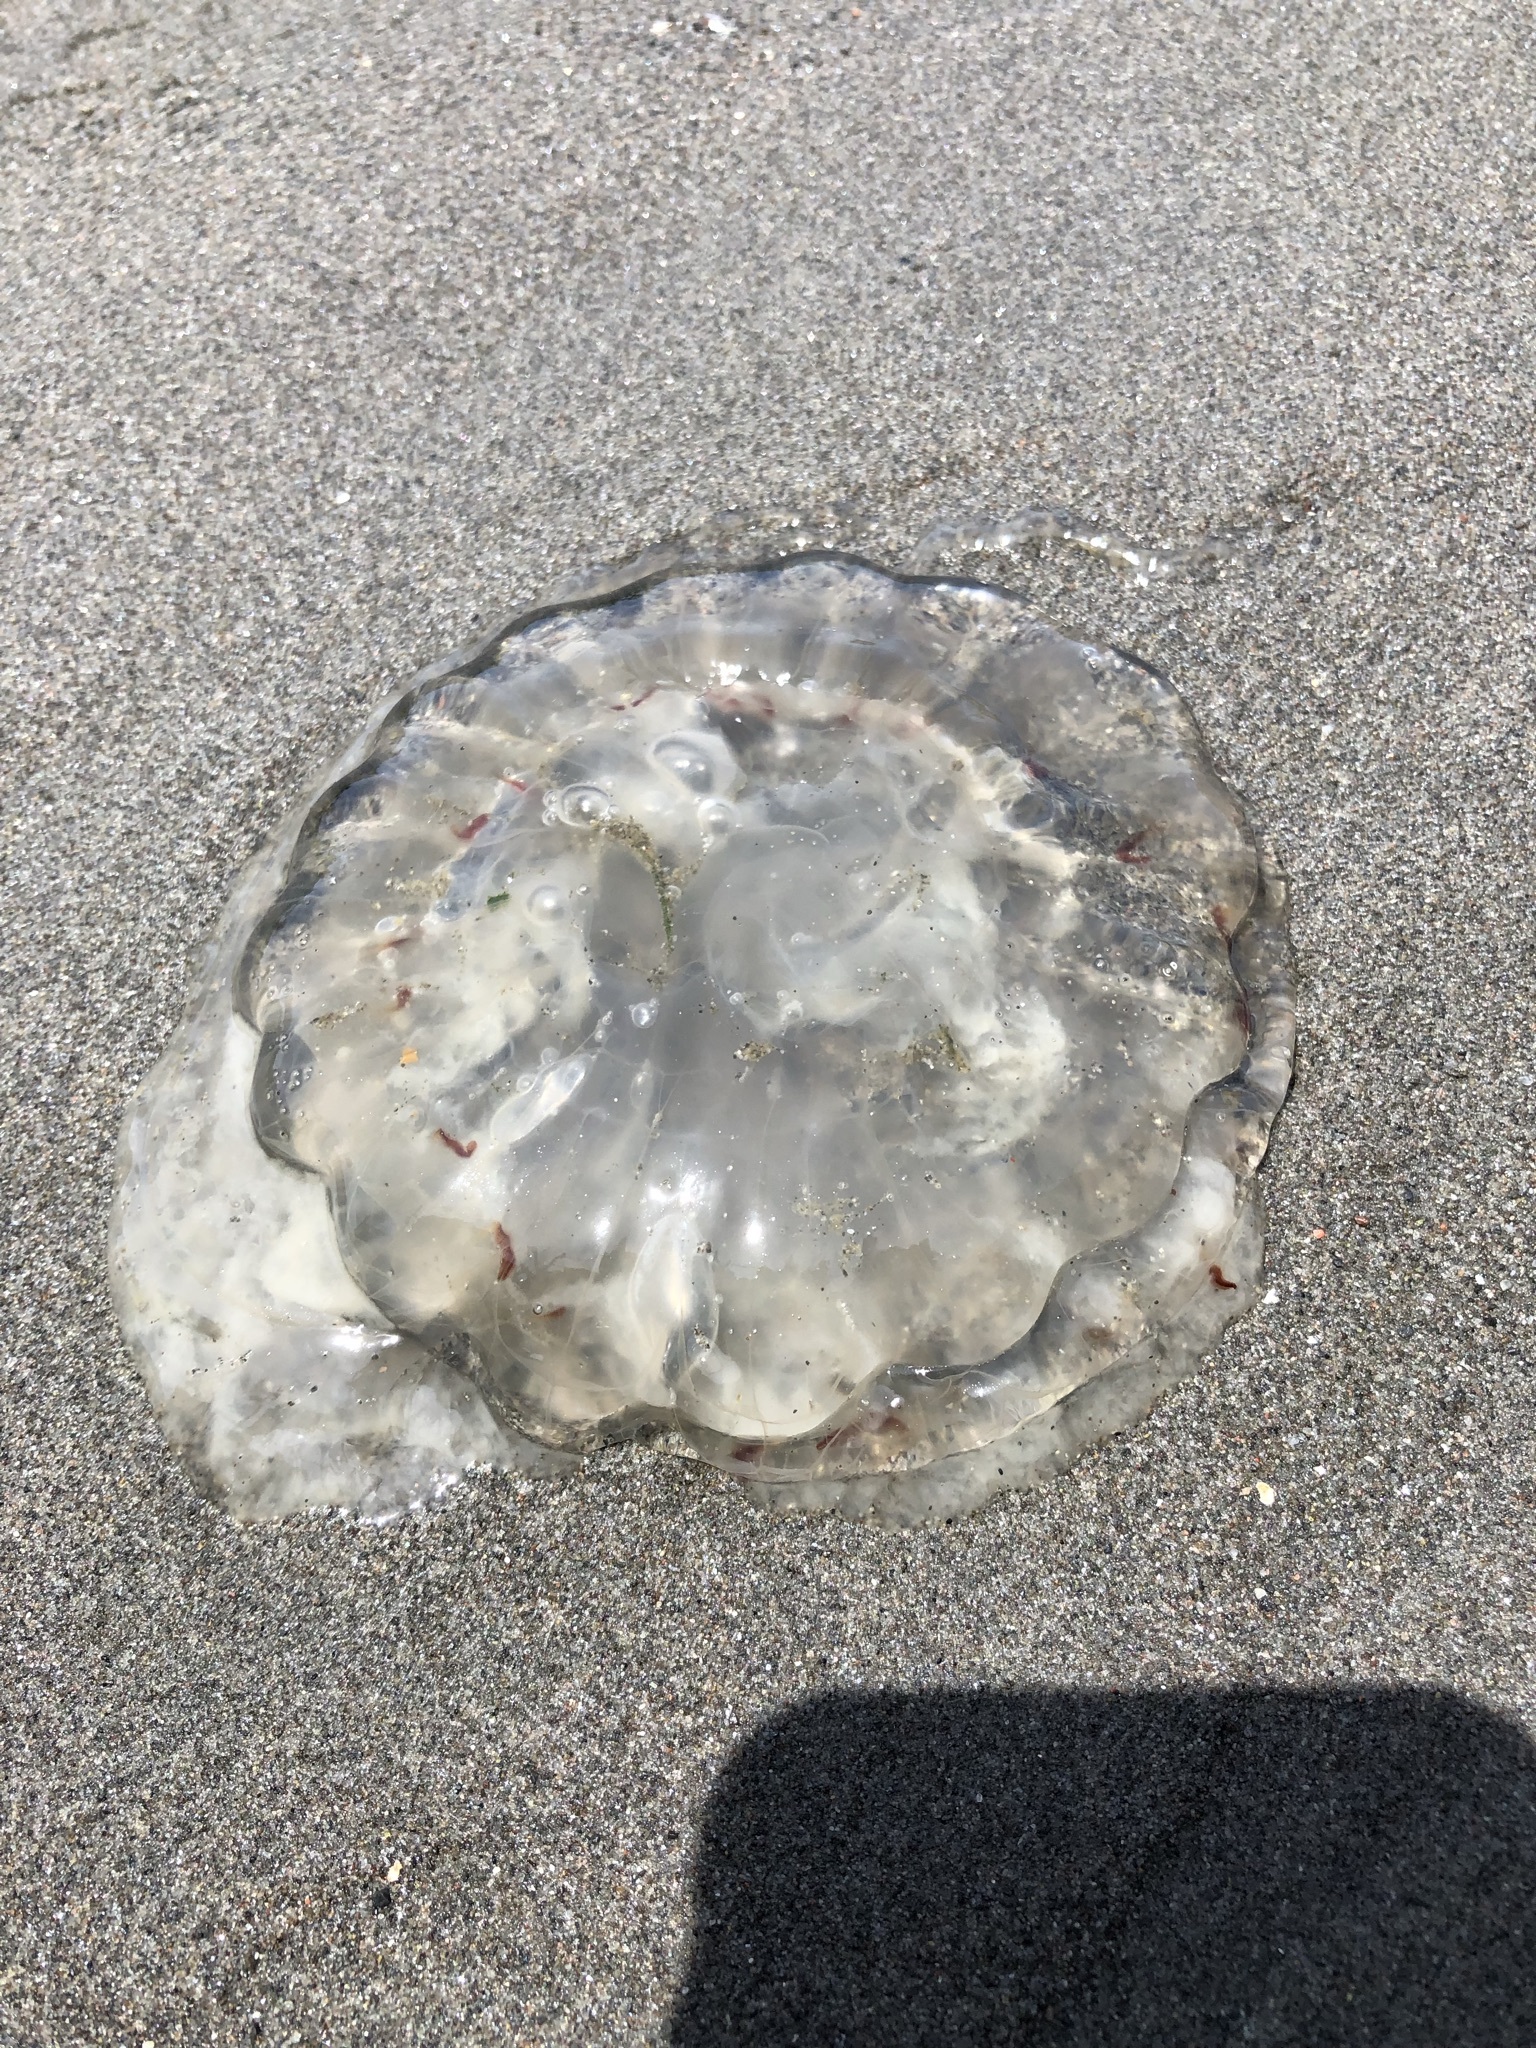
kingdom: Animalia
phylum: Cnidaria
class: Scyphozoa
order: Semaeostomeae
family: Pelagiidae
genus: Chrysaora
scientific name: Chrysaora plocamia
